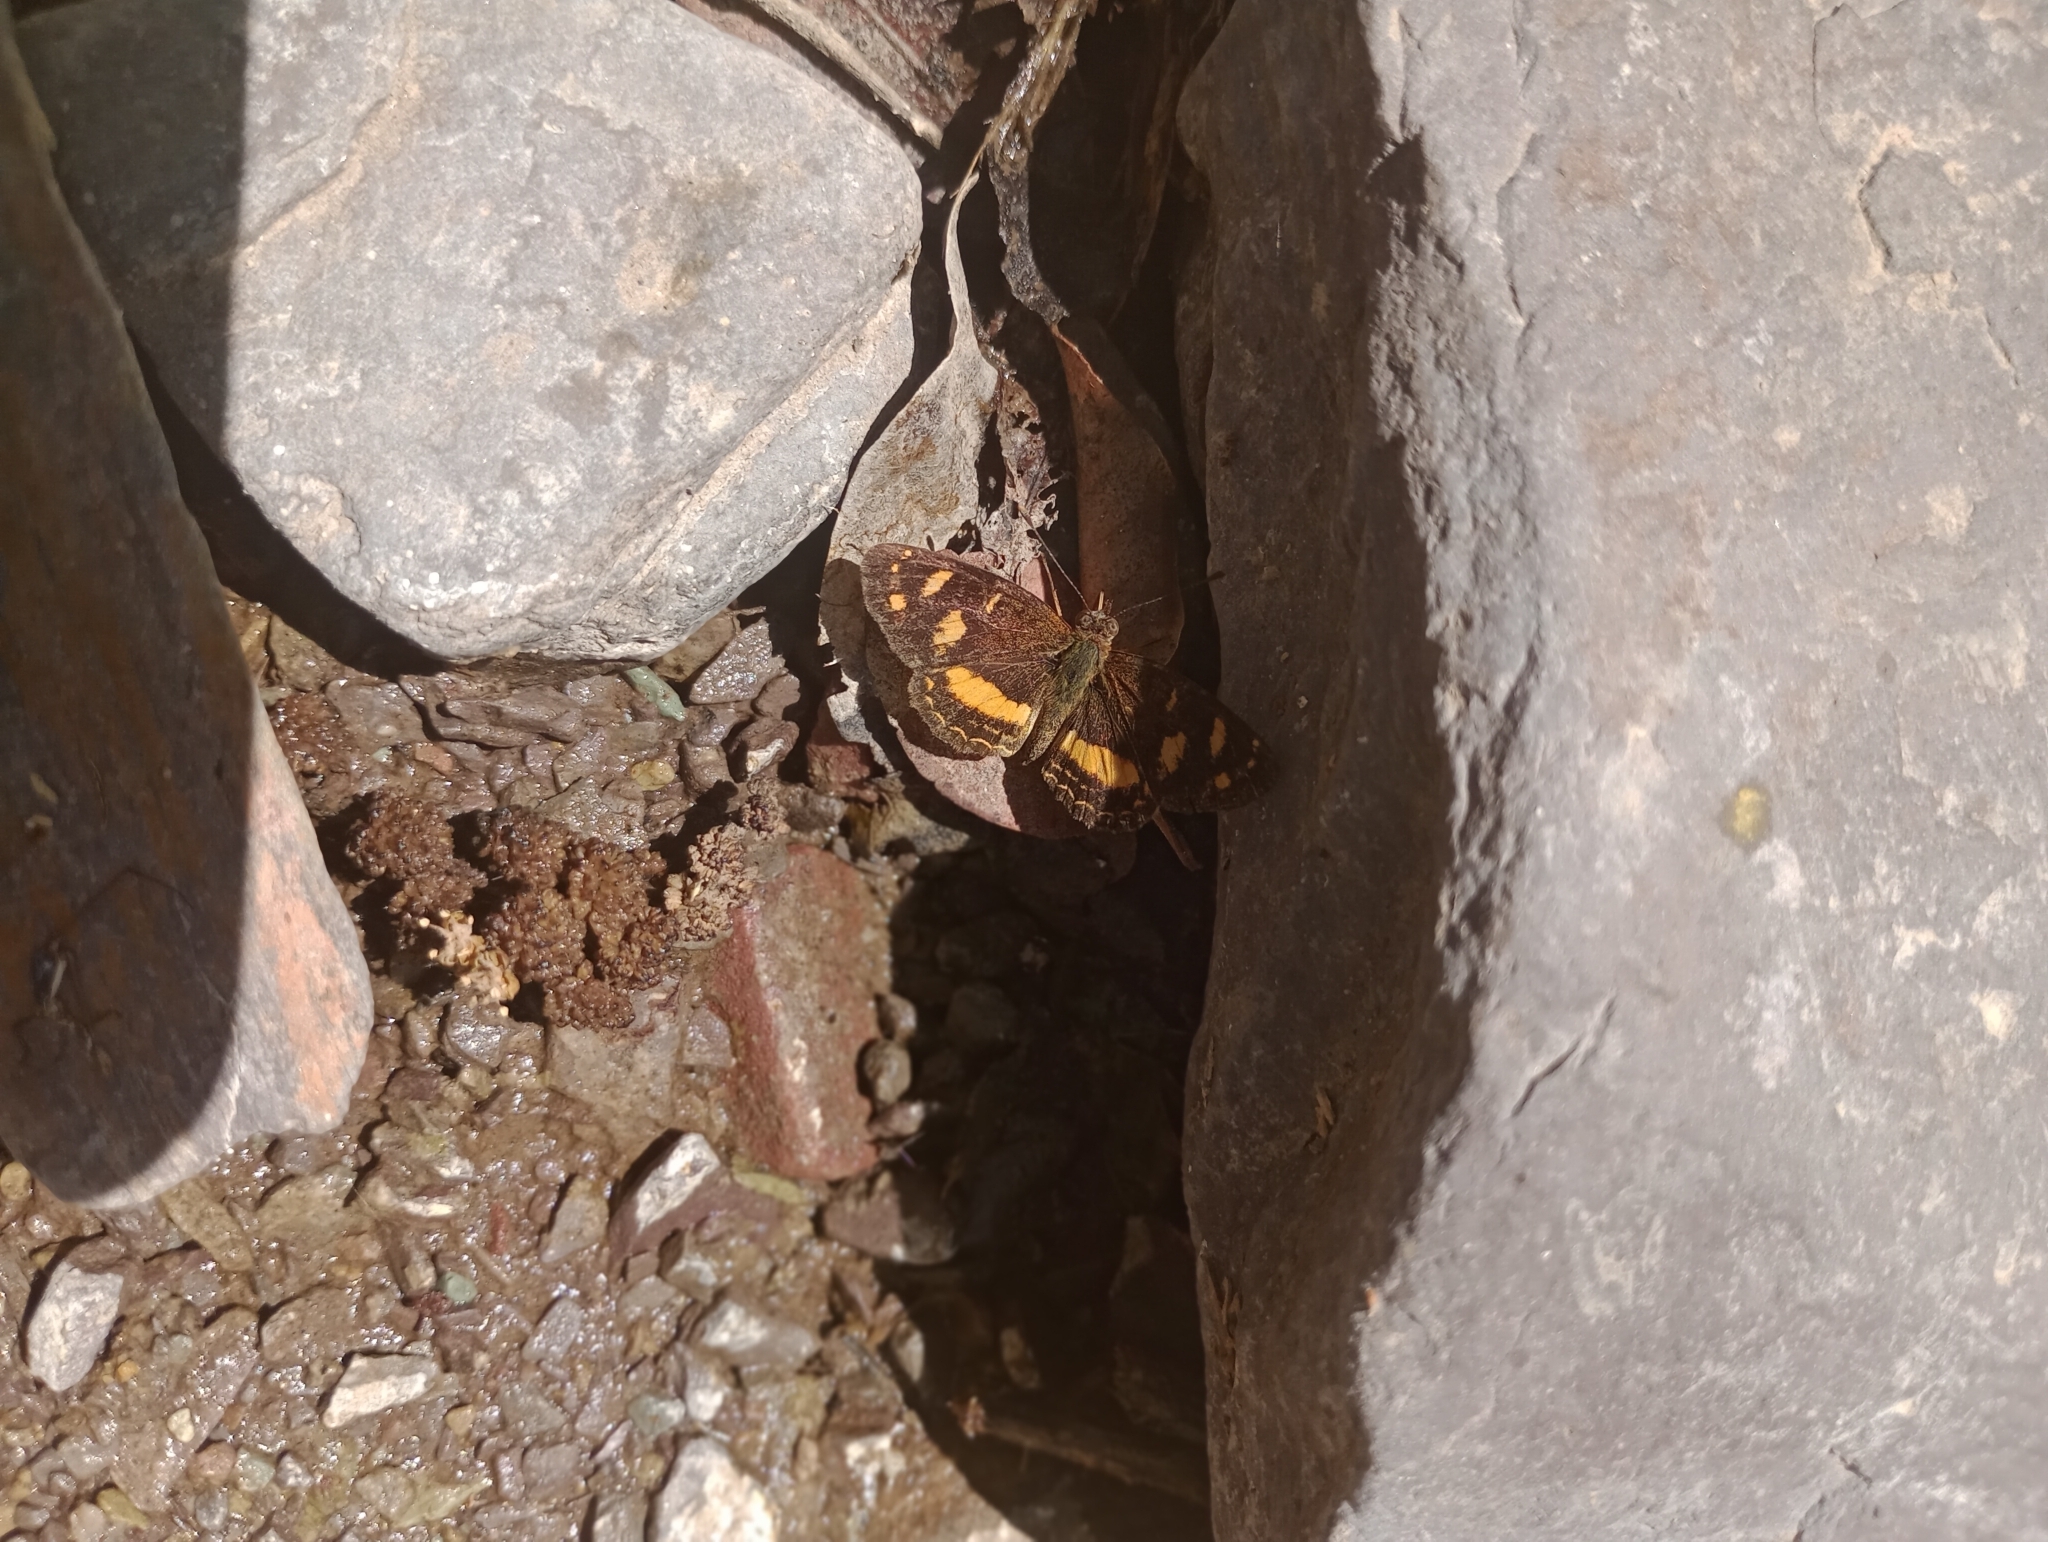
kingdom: Animalia
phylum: Arthropoda
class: Insecta
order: Lepidoptera
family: Nymphalidae
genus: Telenassa
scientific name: Telenassa berenice
